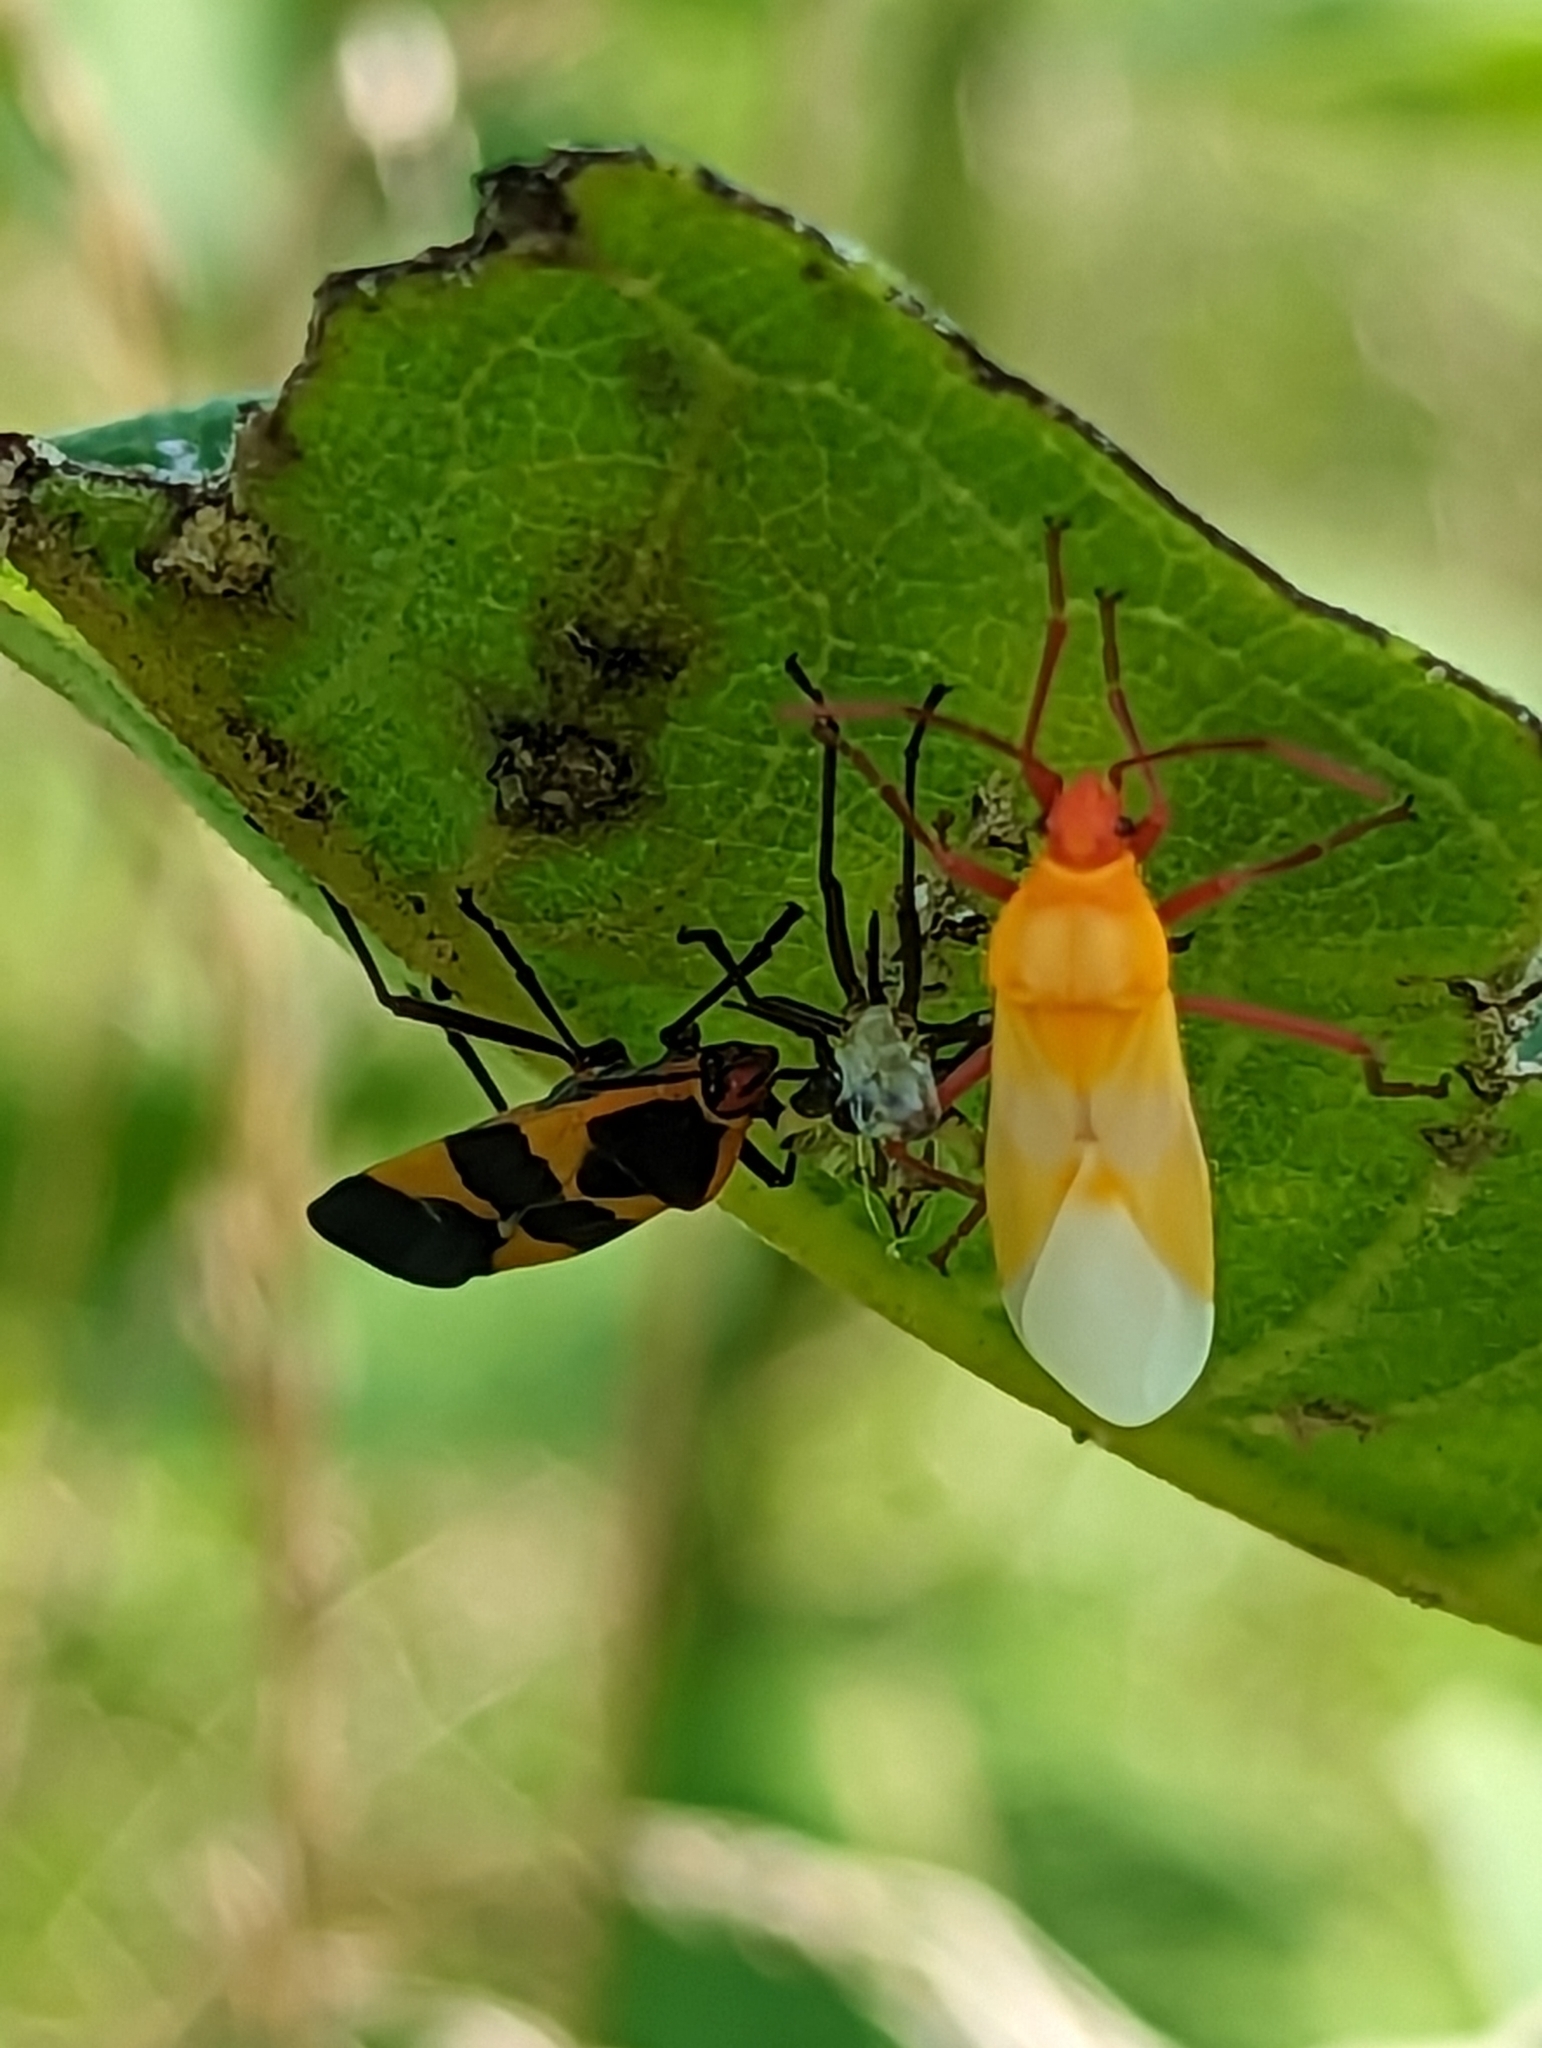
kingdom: Animalia
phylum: Arthropoda
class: Insecta
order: Hemiptera
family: Lygaeidae
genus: Oncopeltus
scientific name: Oncopeltus fasciatus
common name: Large milkweed bug
